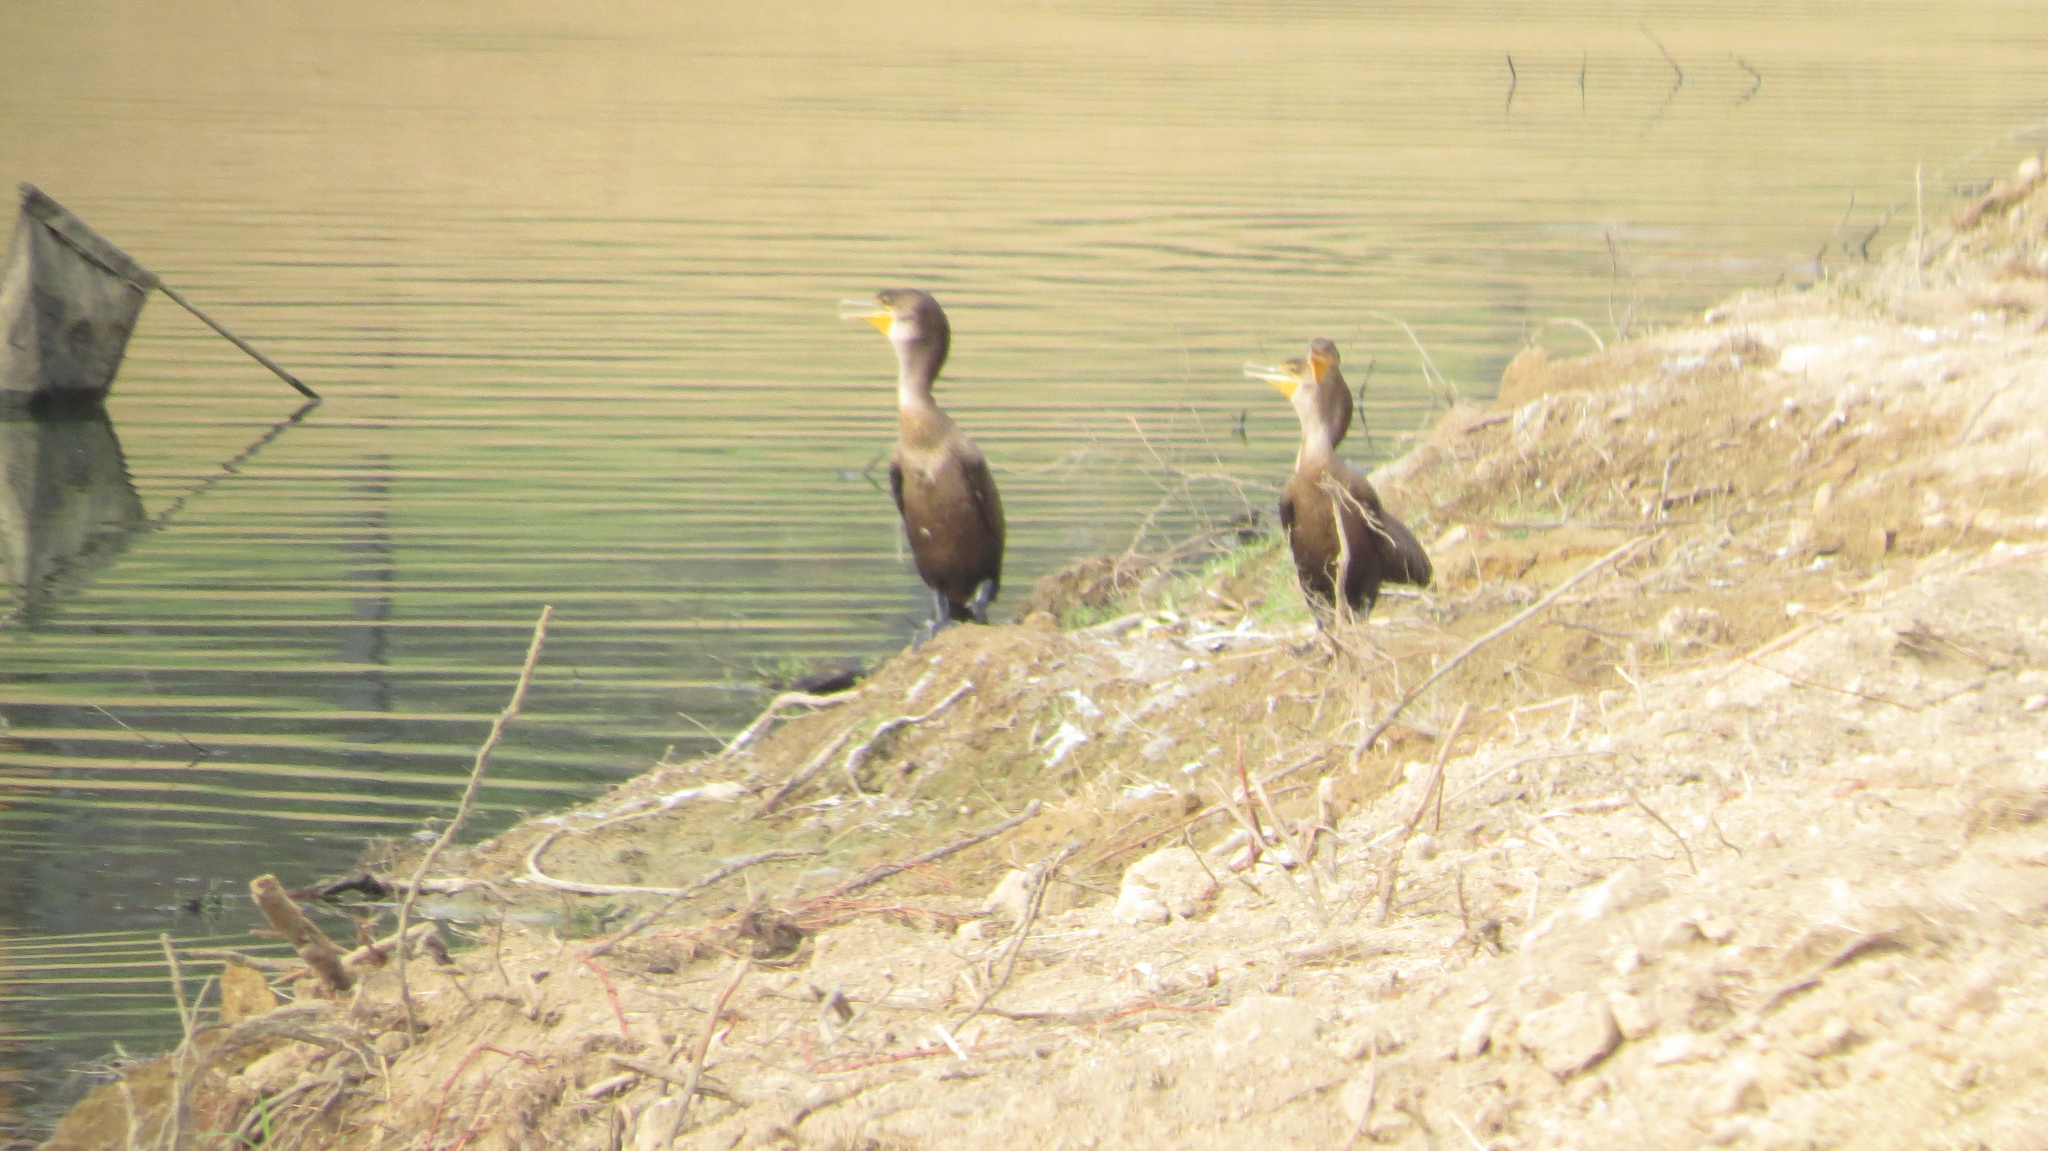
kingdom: Animalia
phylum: Chordata
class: Aves
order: Suliformes
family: Phalacrocoracidae
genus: Phalacrocorax
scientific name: Phalacrocorax auritus
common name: Double-crested cormorant
